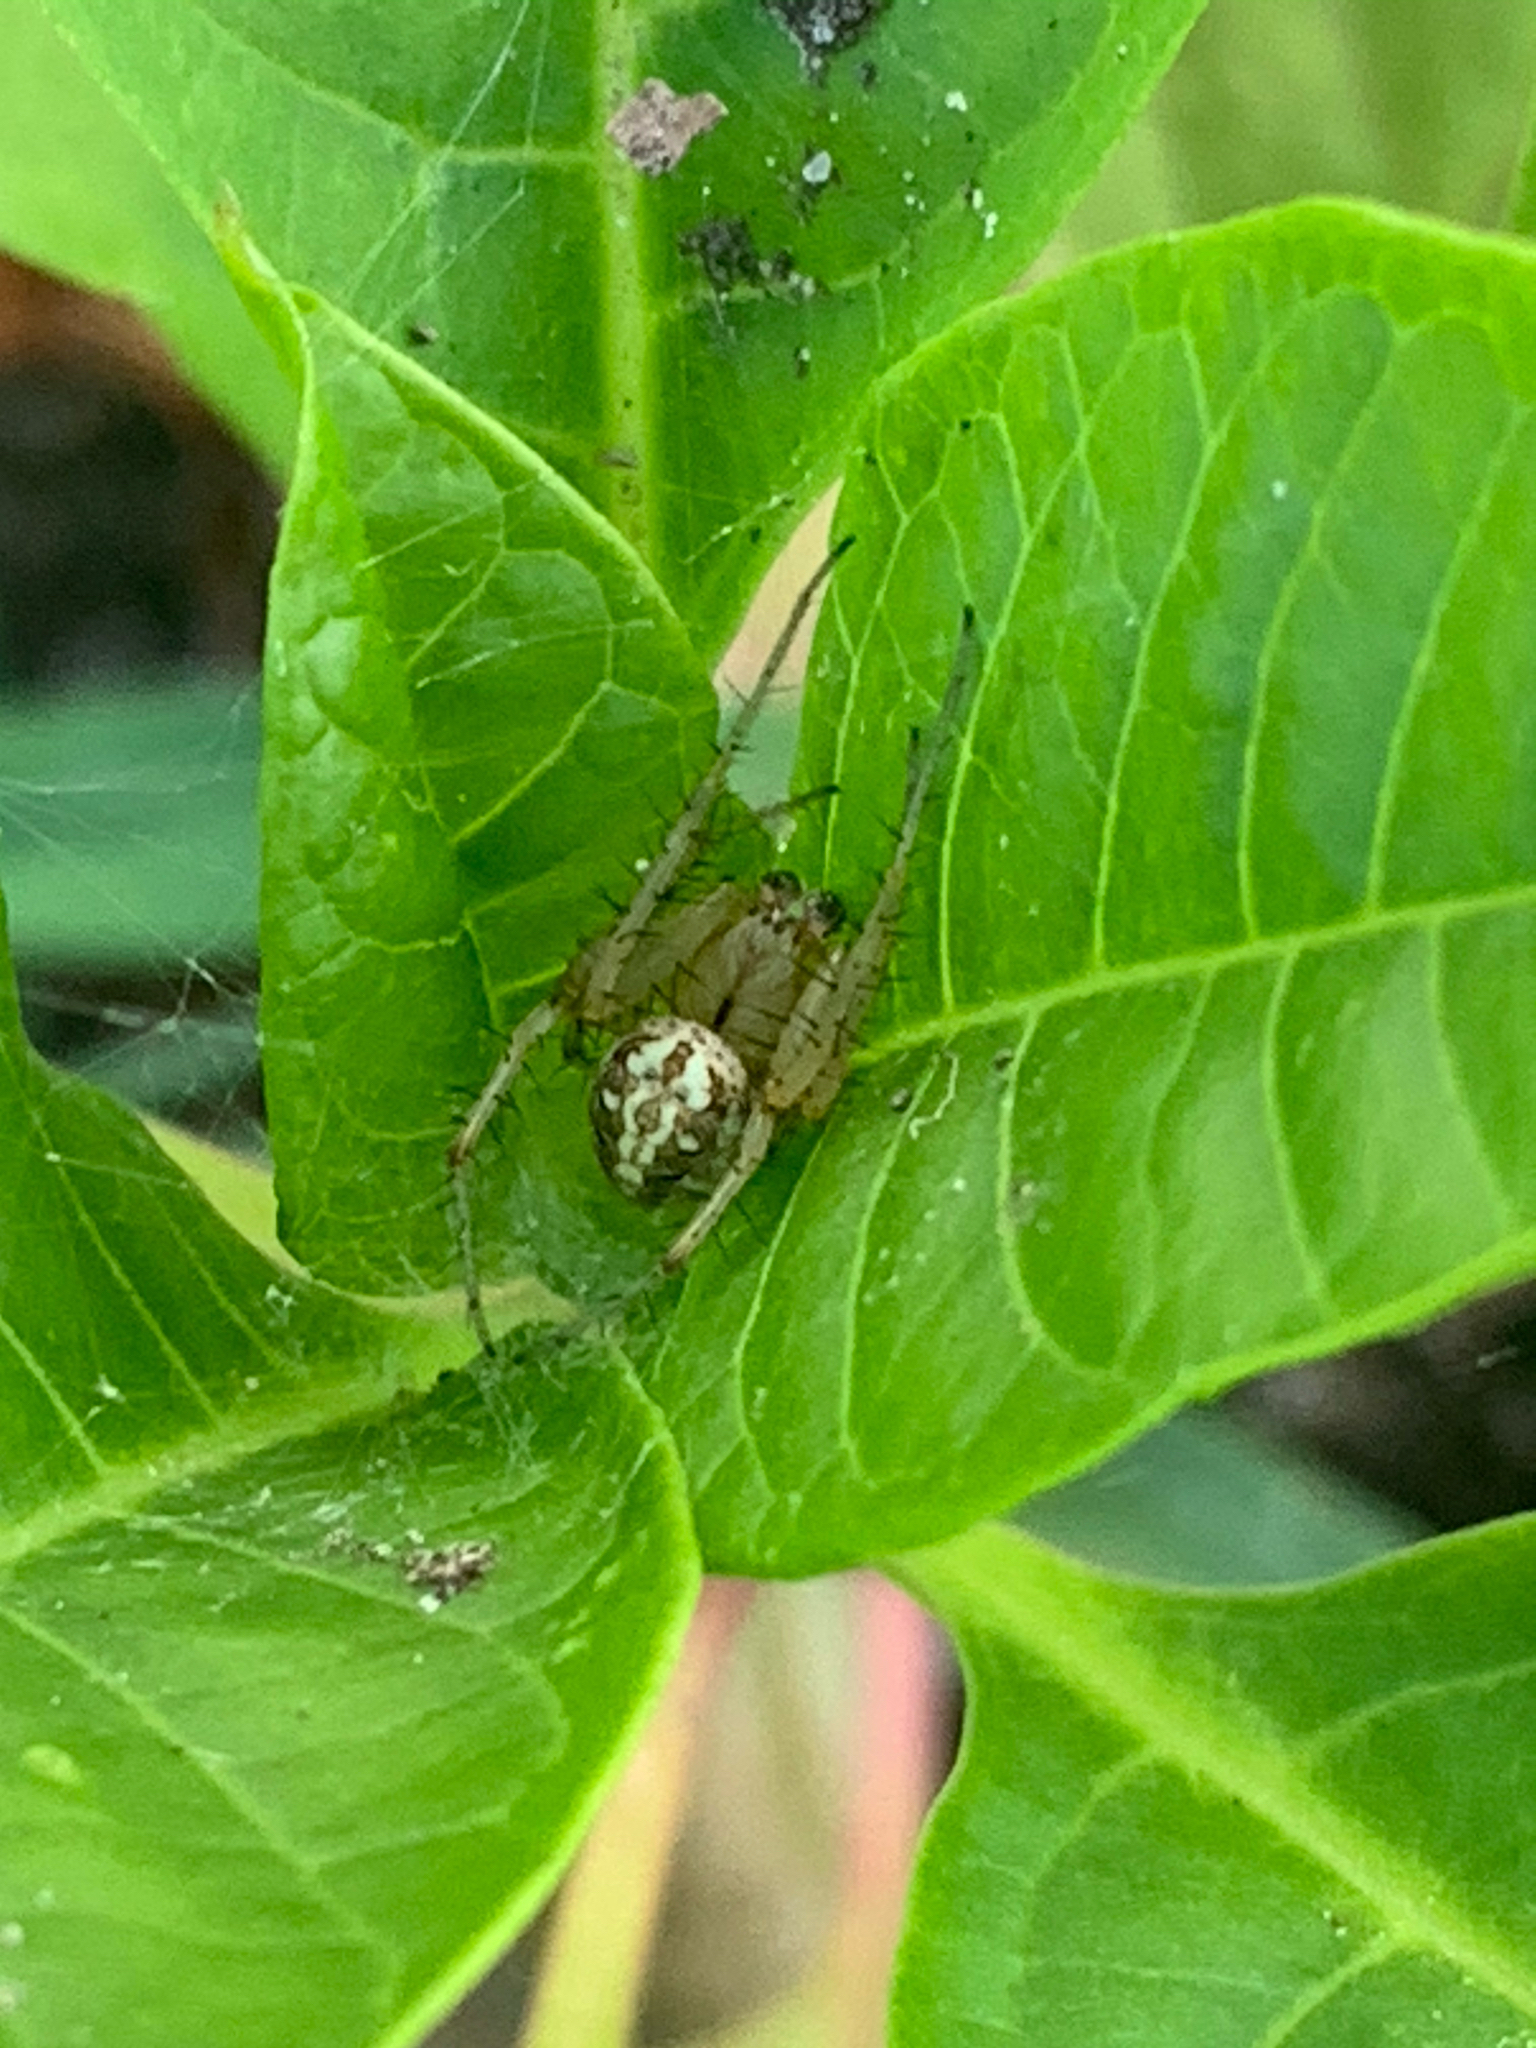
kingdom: Animalia
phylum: Arthropoda
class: Arachnida
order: Araneae
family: Araneidae
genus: Neoscona
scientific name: Neoscona arabesca
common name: Orb weavers
